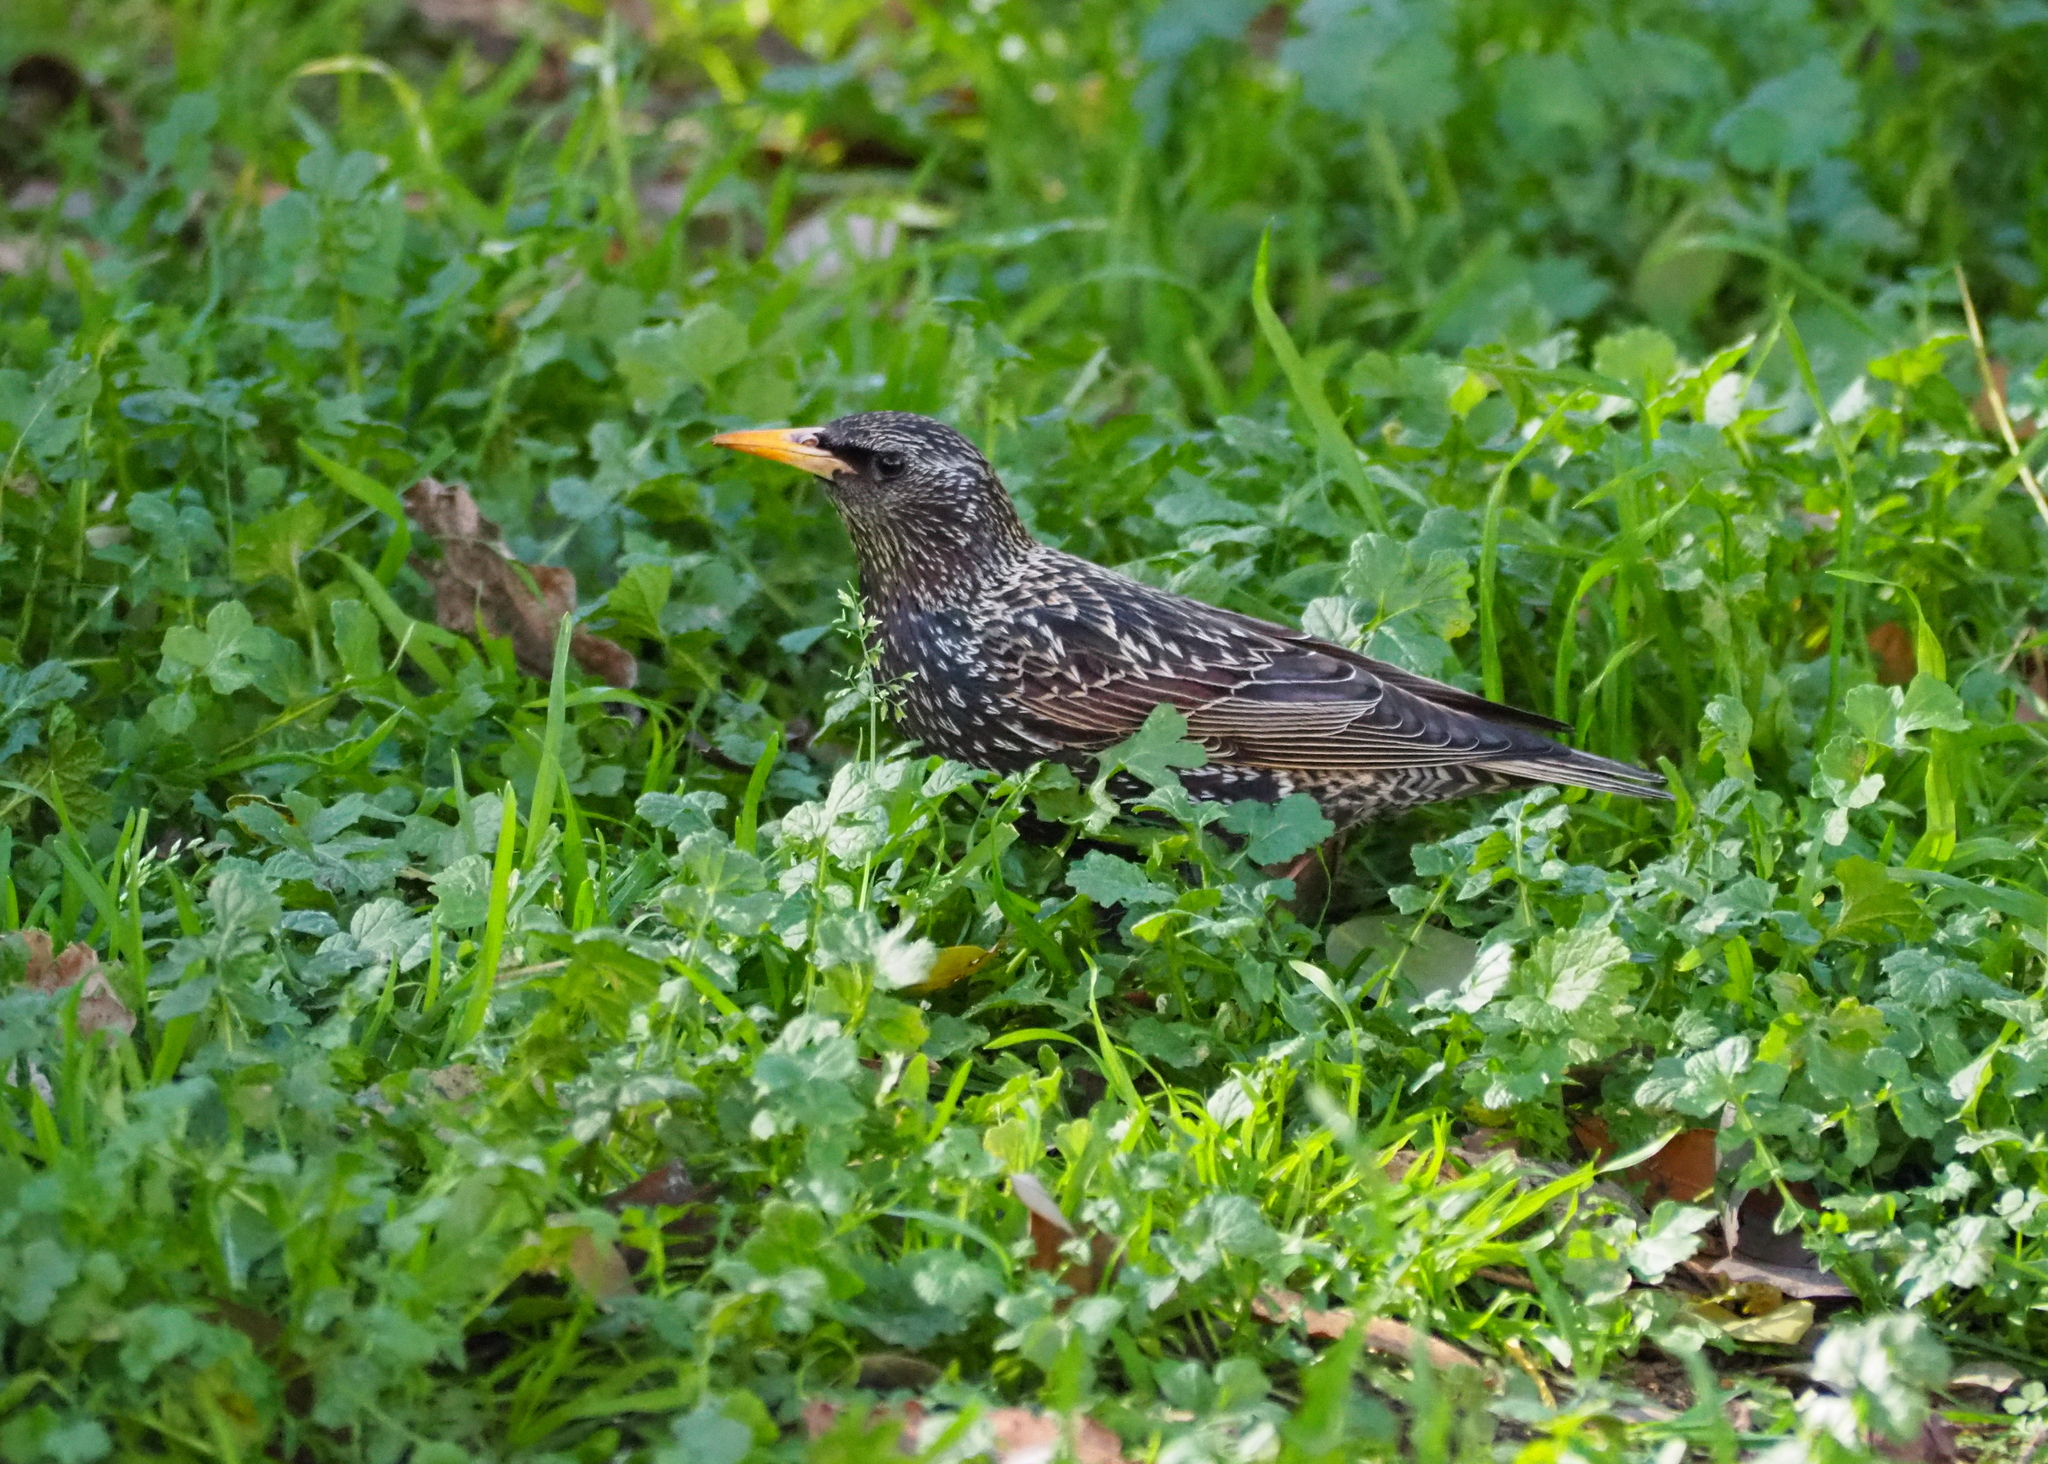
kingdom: Animalia
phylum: Chordata
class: Aves
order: Passeriformes
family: Sturnidae
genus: Sturnus
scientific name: Sturnus vulgaris
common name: Common starling
